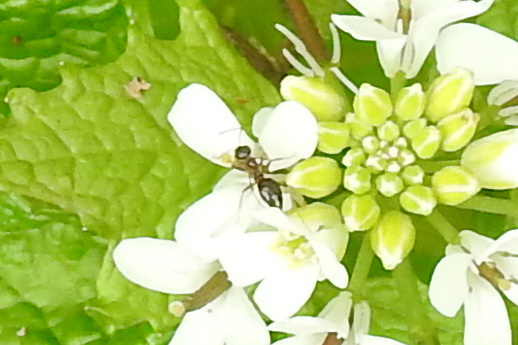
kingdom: Animalia
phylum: Arthropoda
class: Insecta
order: Hymenoptera
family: Formicidae
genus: Prenolepis
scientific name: Prenolepis imparis
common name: Small honey ant
